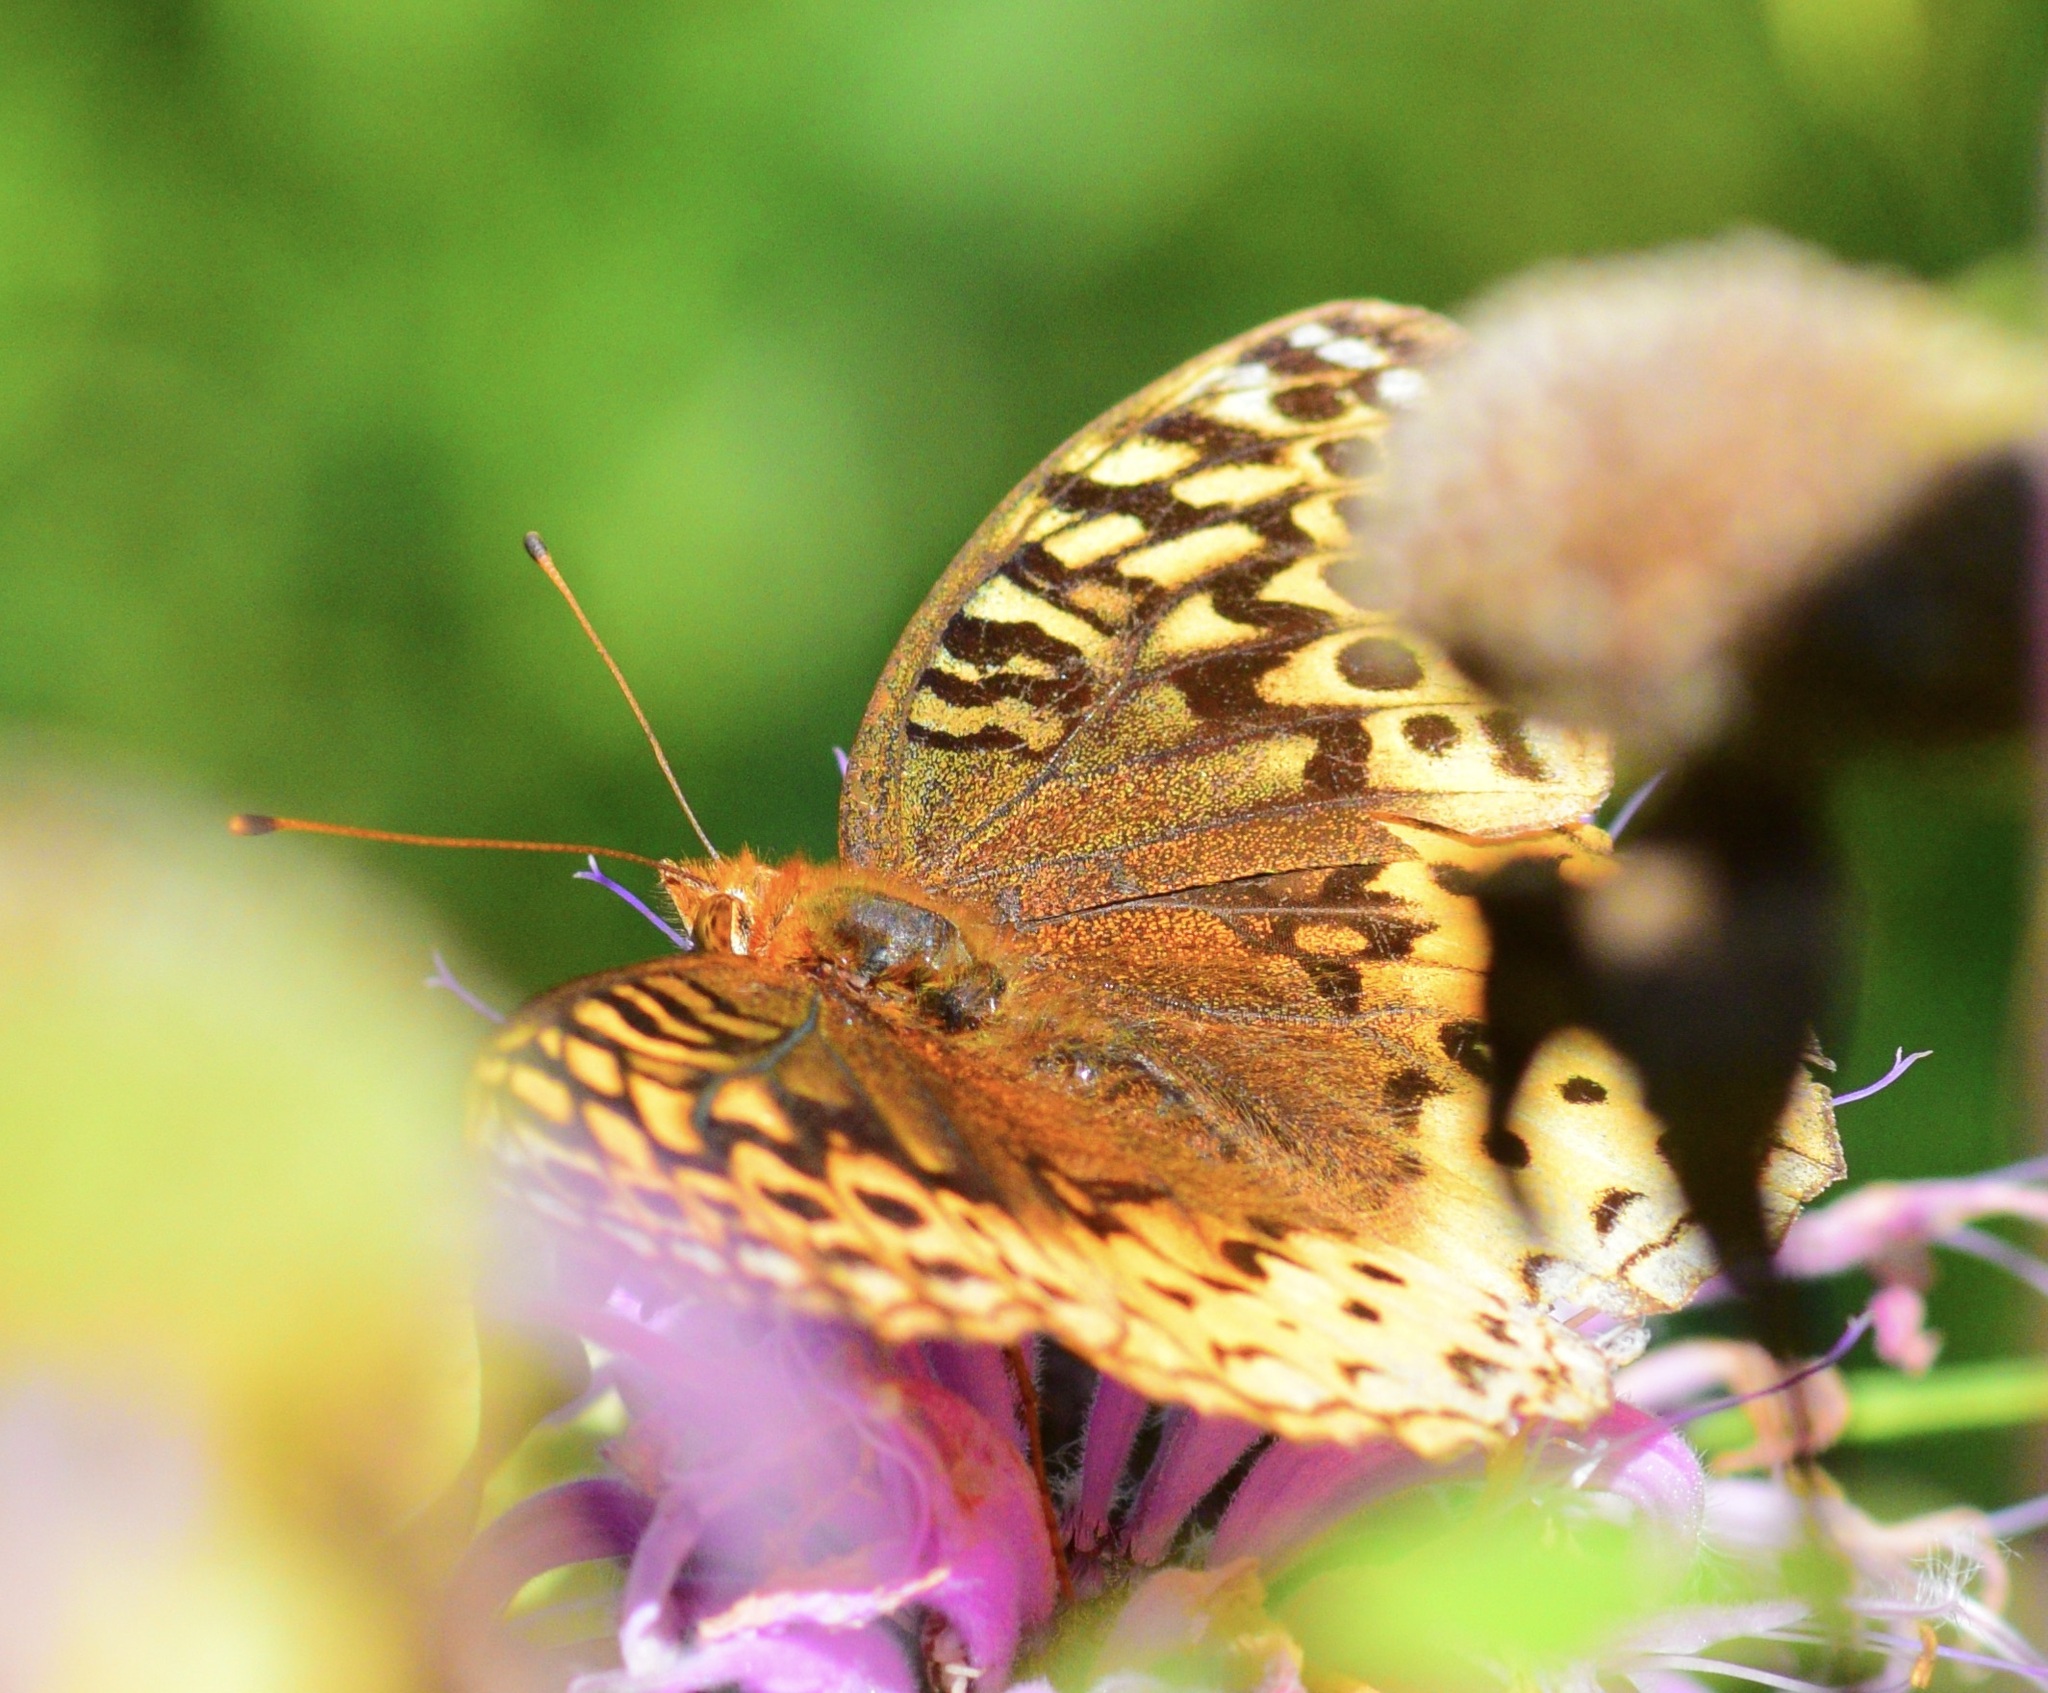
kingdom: Animalia
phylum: Arthropoda
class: Insecta
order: Lepidoptera
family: Nymphalidae
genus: Speyeria
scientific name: Speyeria cybele
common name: Great spangled fritillary
